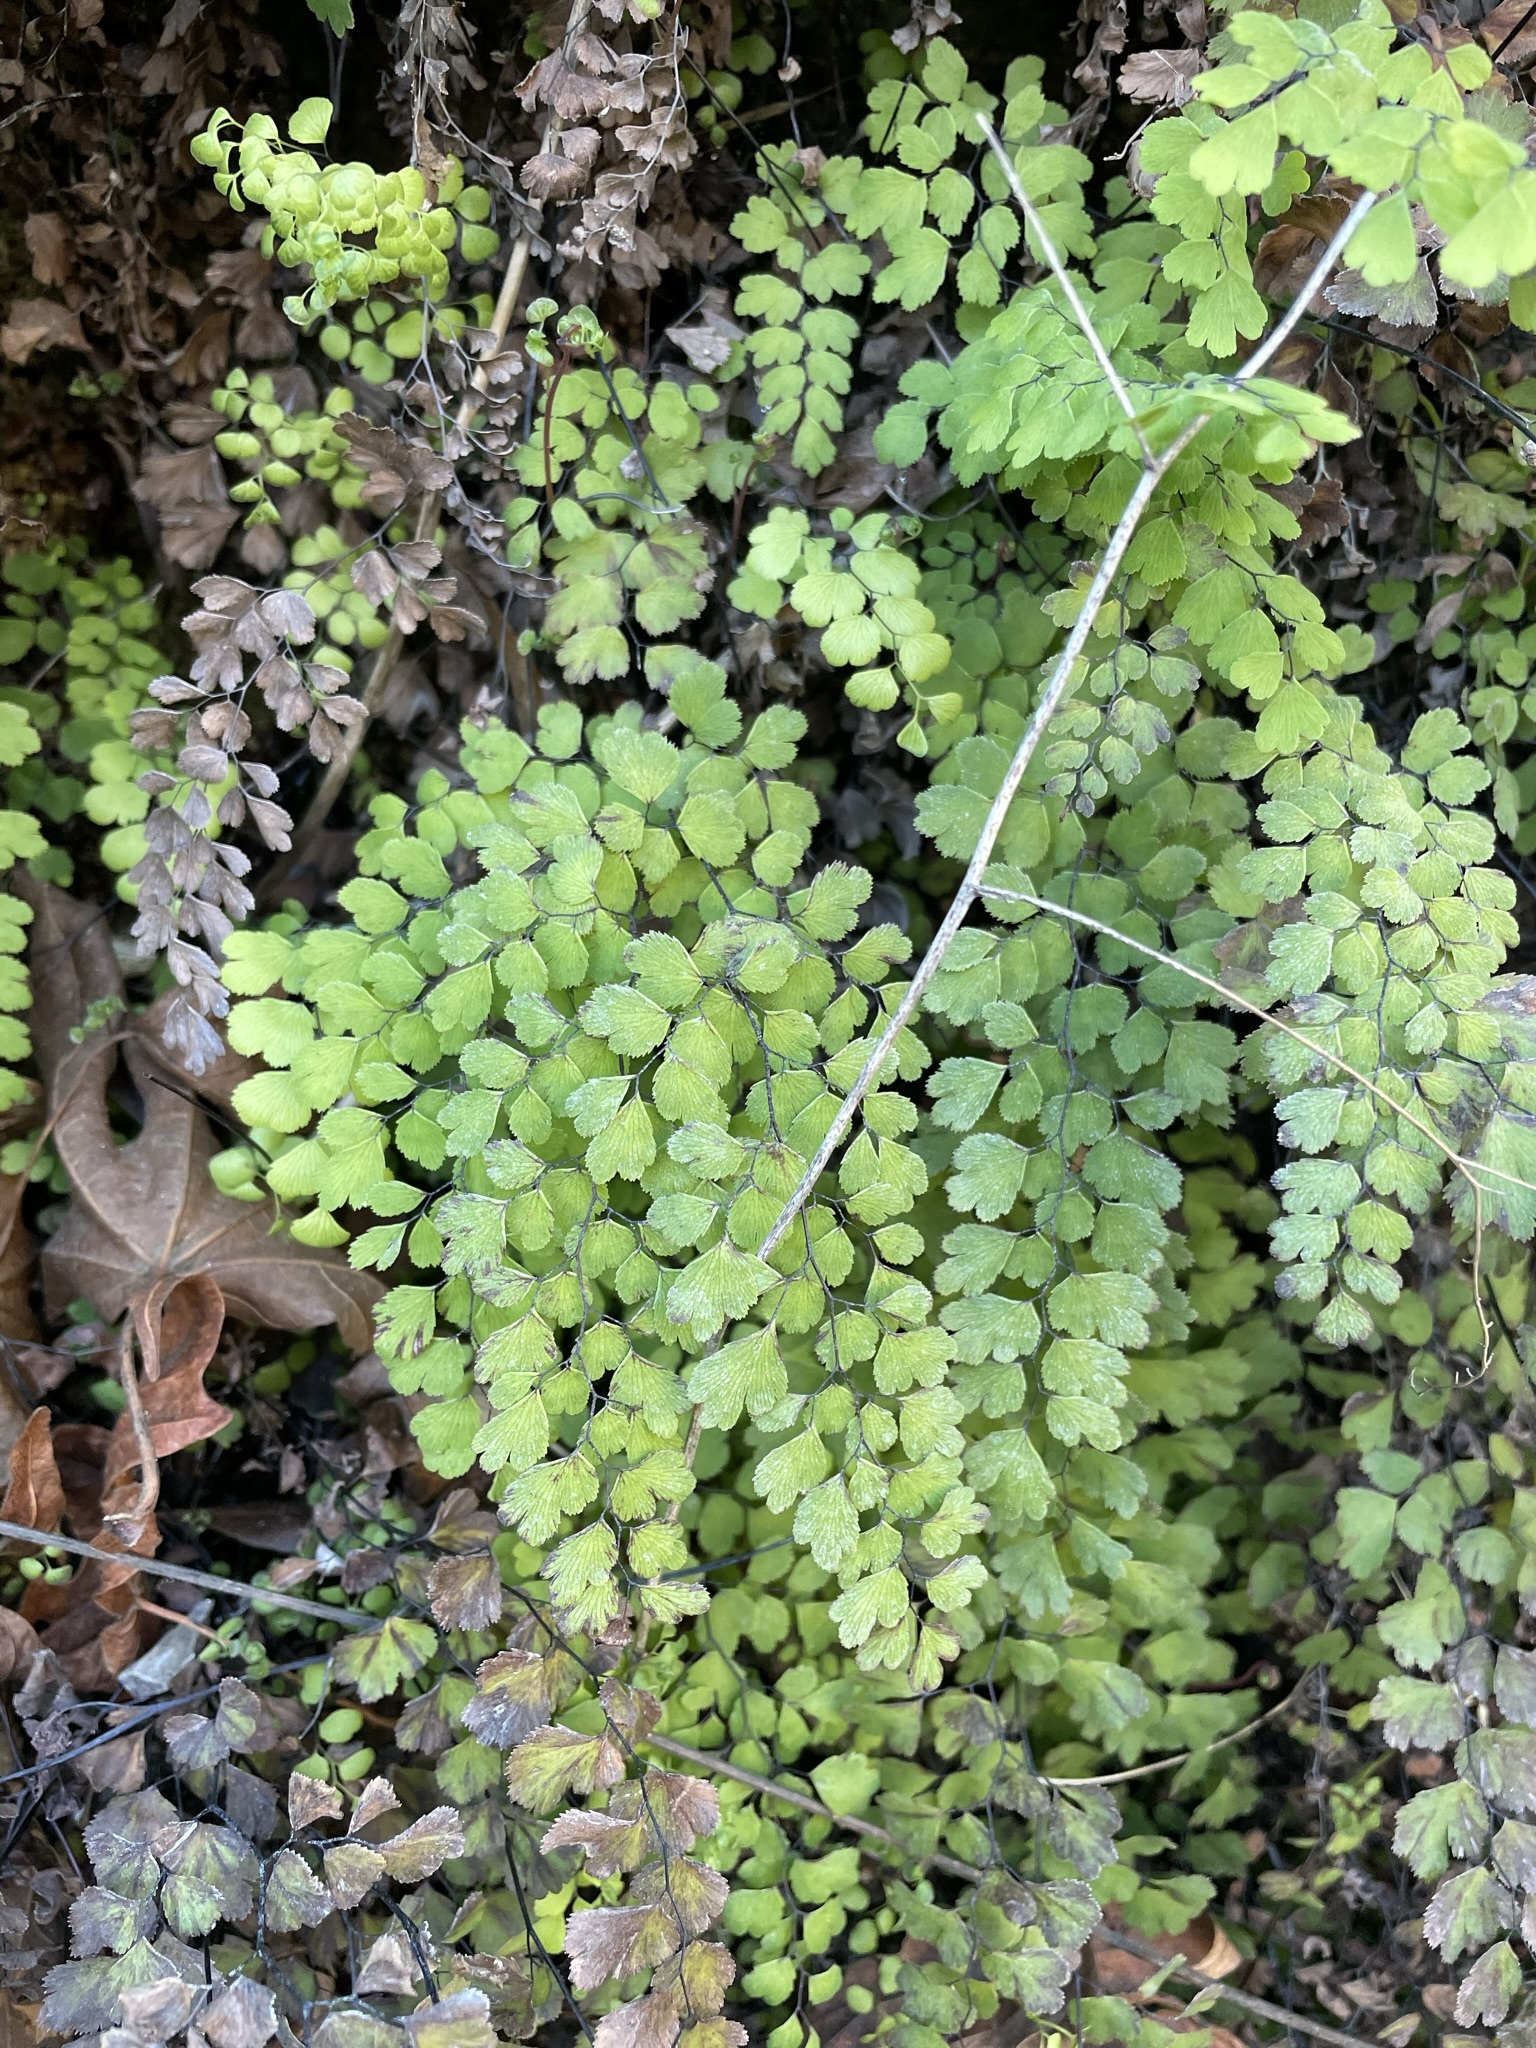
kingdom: Plantae
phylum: Tracheophyta
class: Polypodiopsida
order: Polypodiales
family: Pteridaceae
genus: Adiantum
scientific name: Adiantum capillus-veneris
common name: Maidenhair fern
